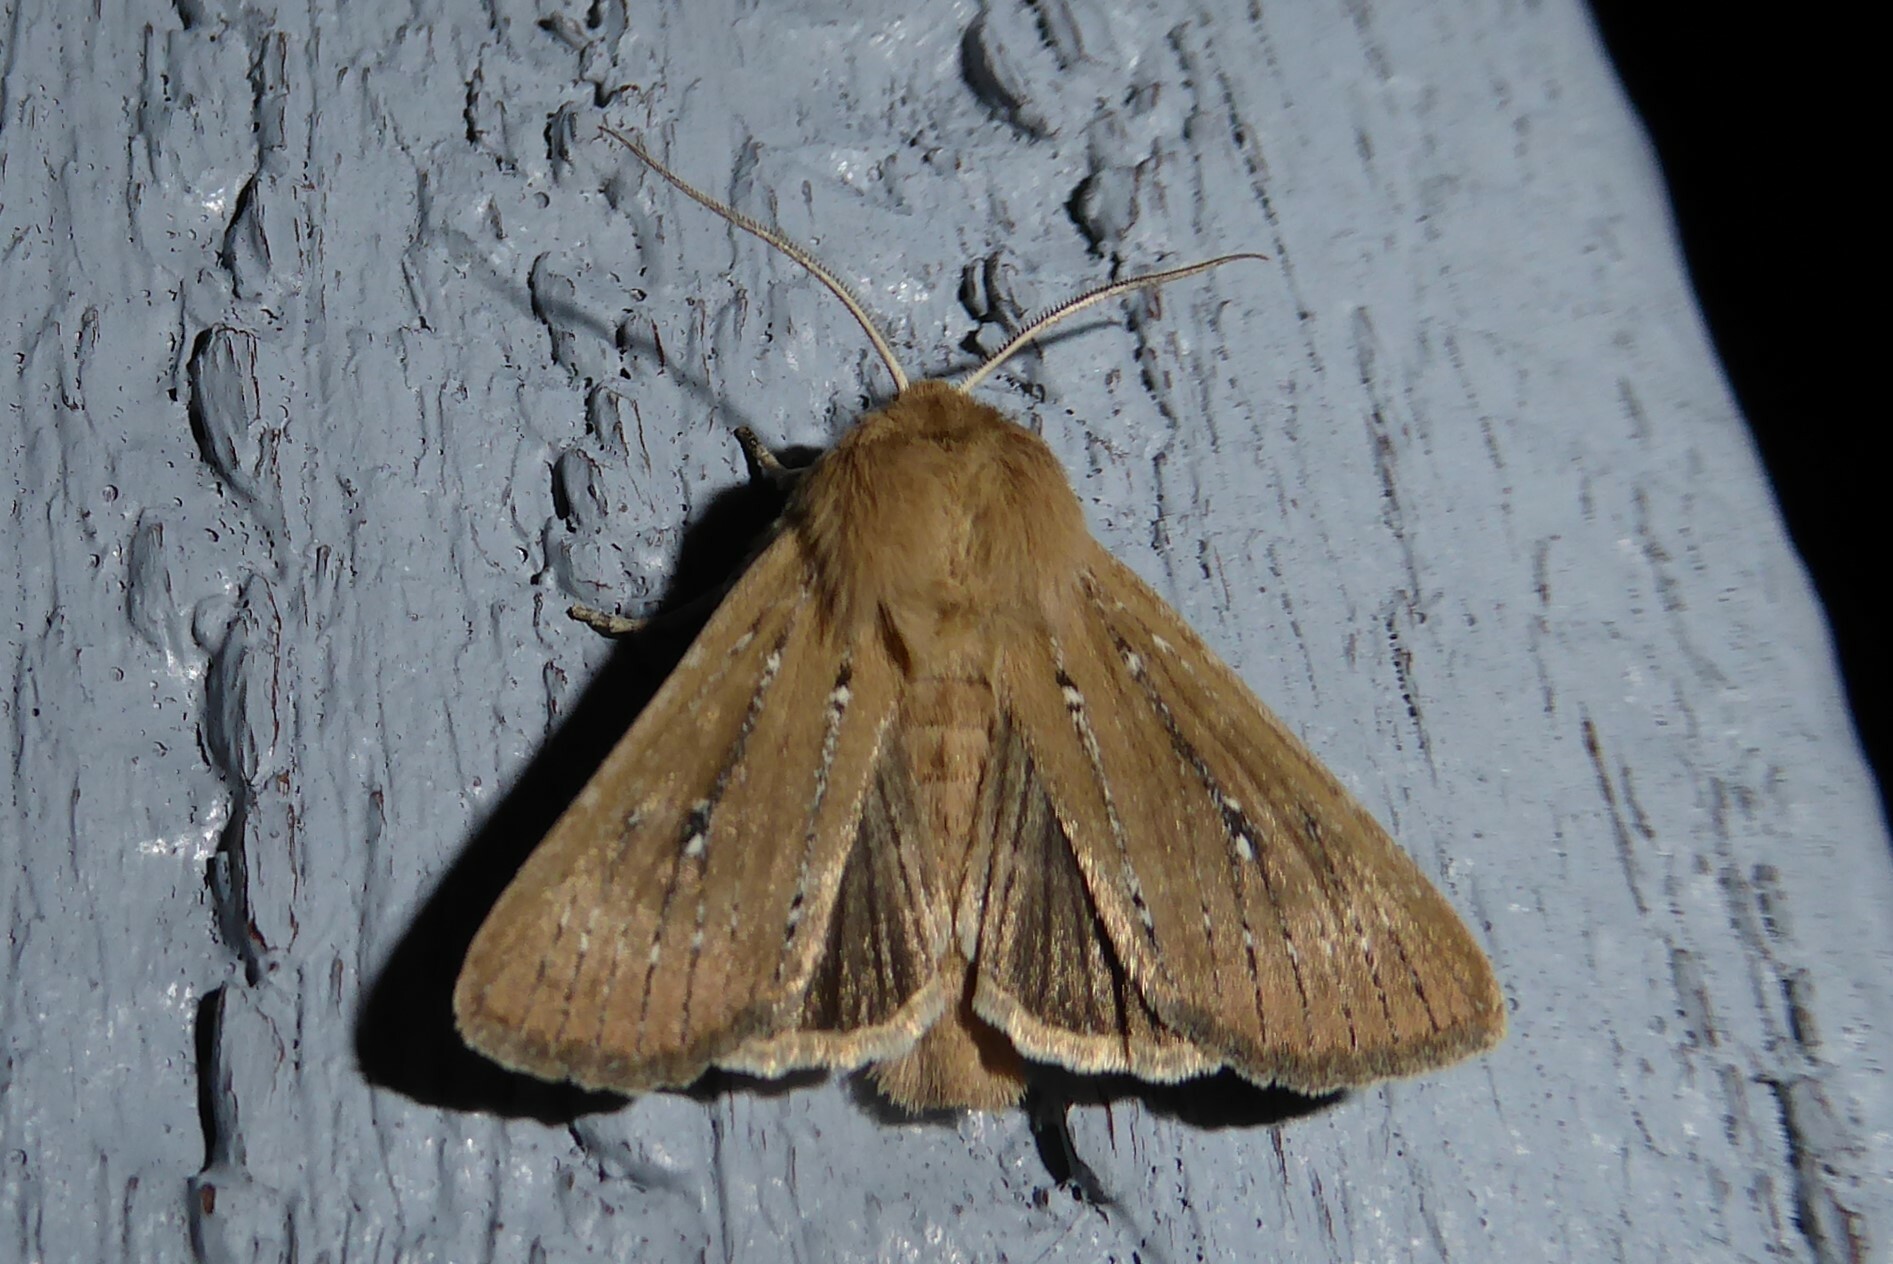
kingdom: Animalia
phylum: Arthropoda
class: Insecta
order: Lepidoptera
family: Noctuidae
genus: Ichneutica
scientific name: Ichneutica
